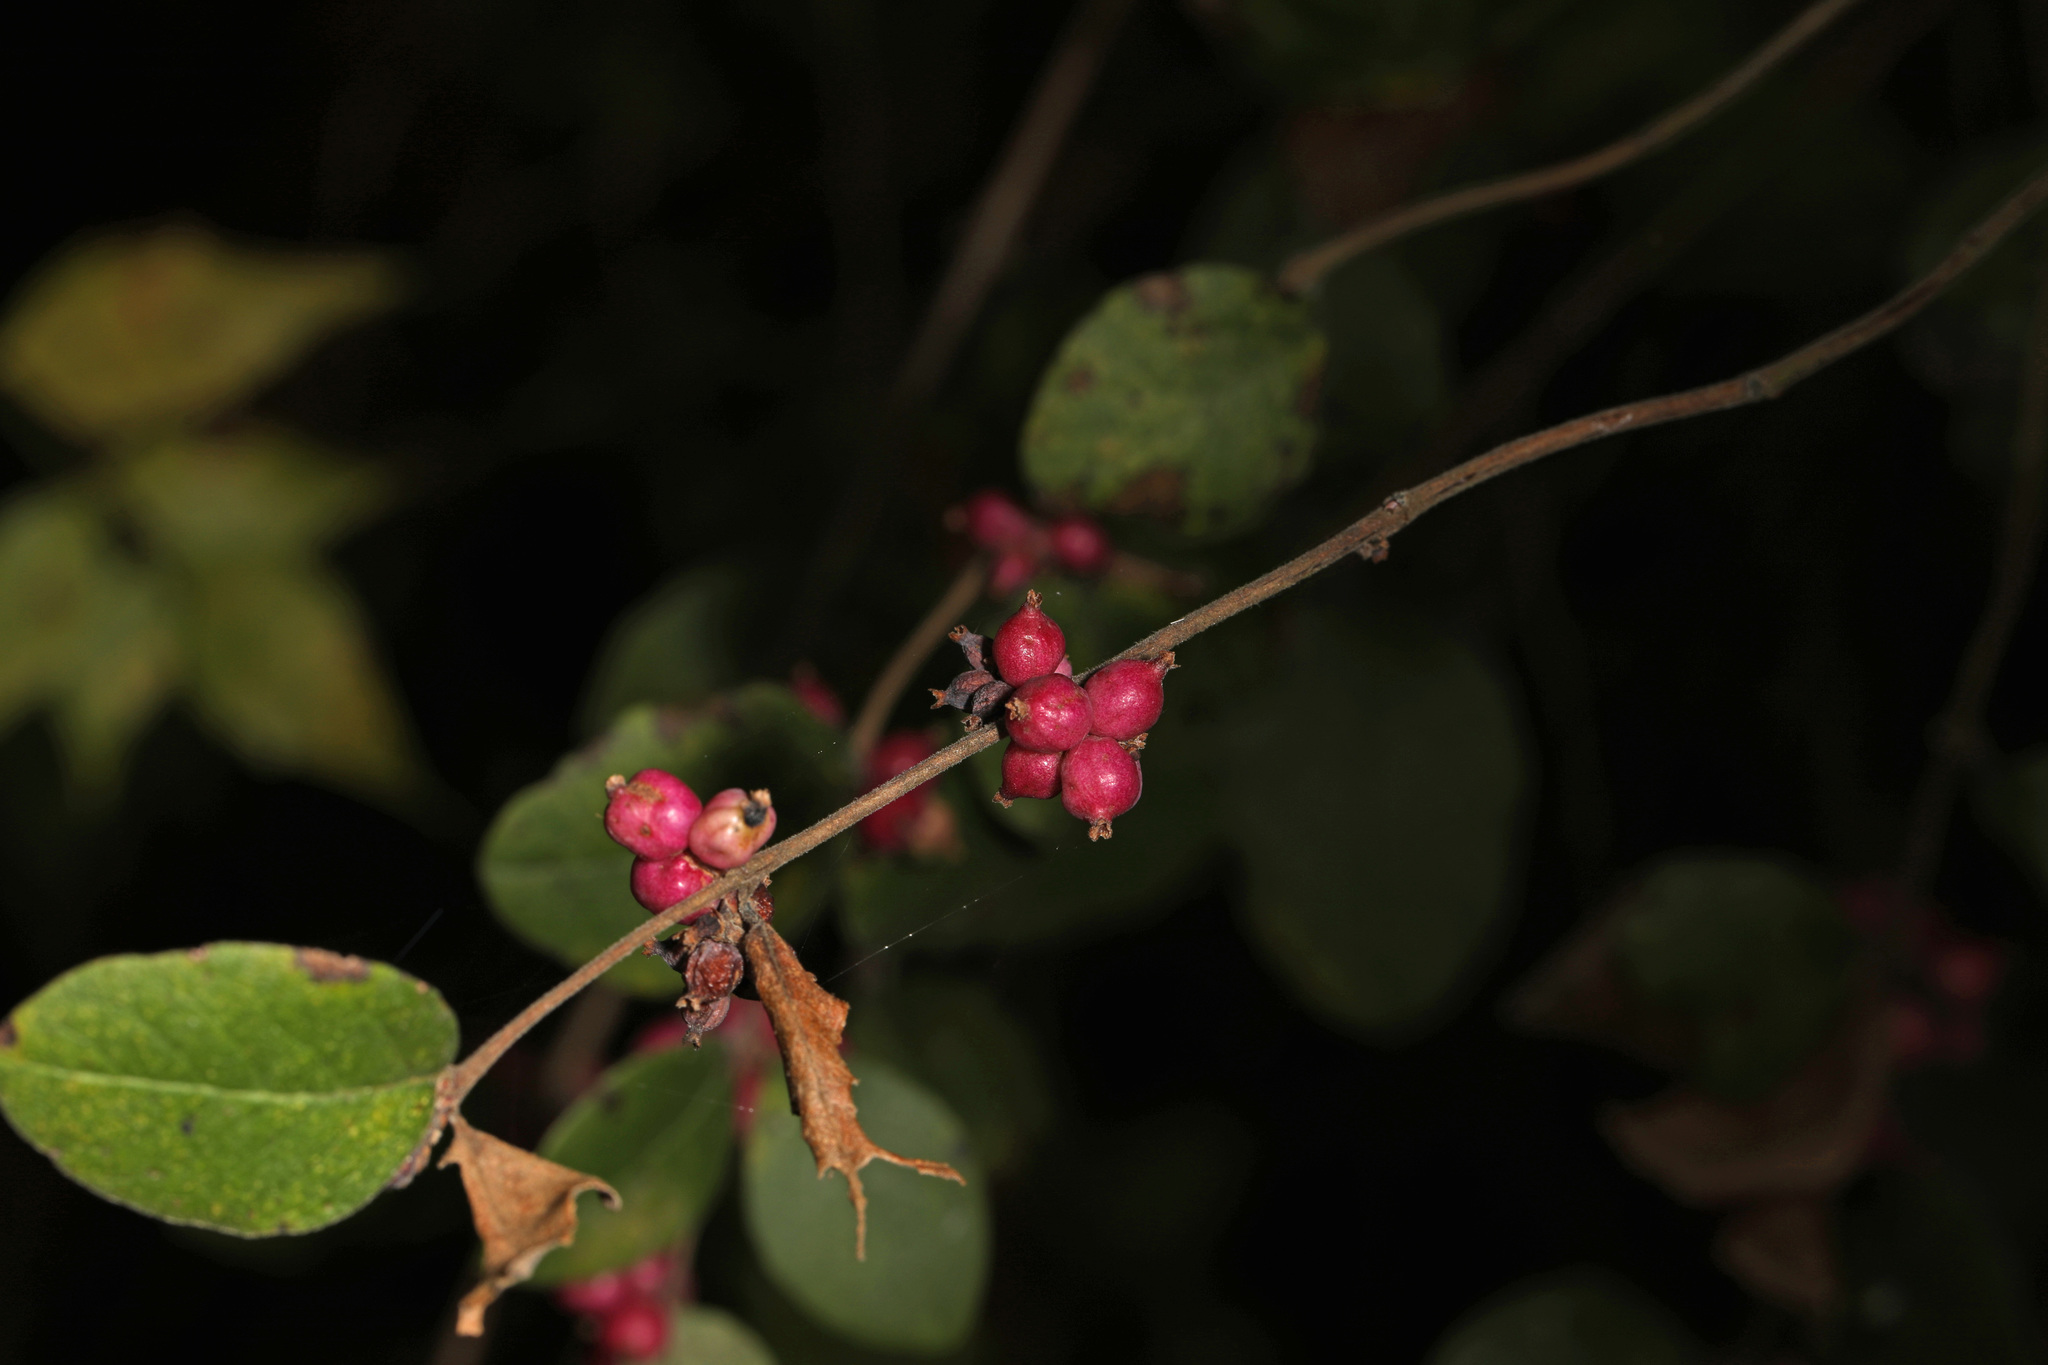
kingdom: Plantae
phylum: Tracheophyta
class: Magnoliopsida
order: Dipsacales
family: Caprifoliaceae
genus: Symphoricarpos
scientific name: Symphoricarpos orbiculatus
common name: Coralberry
